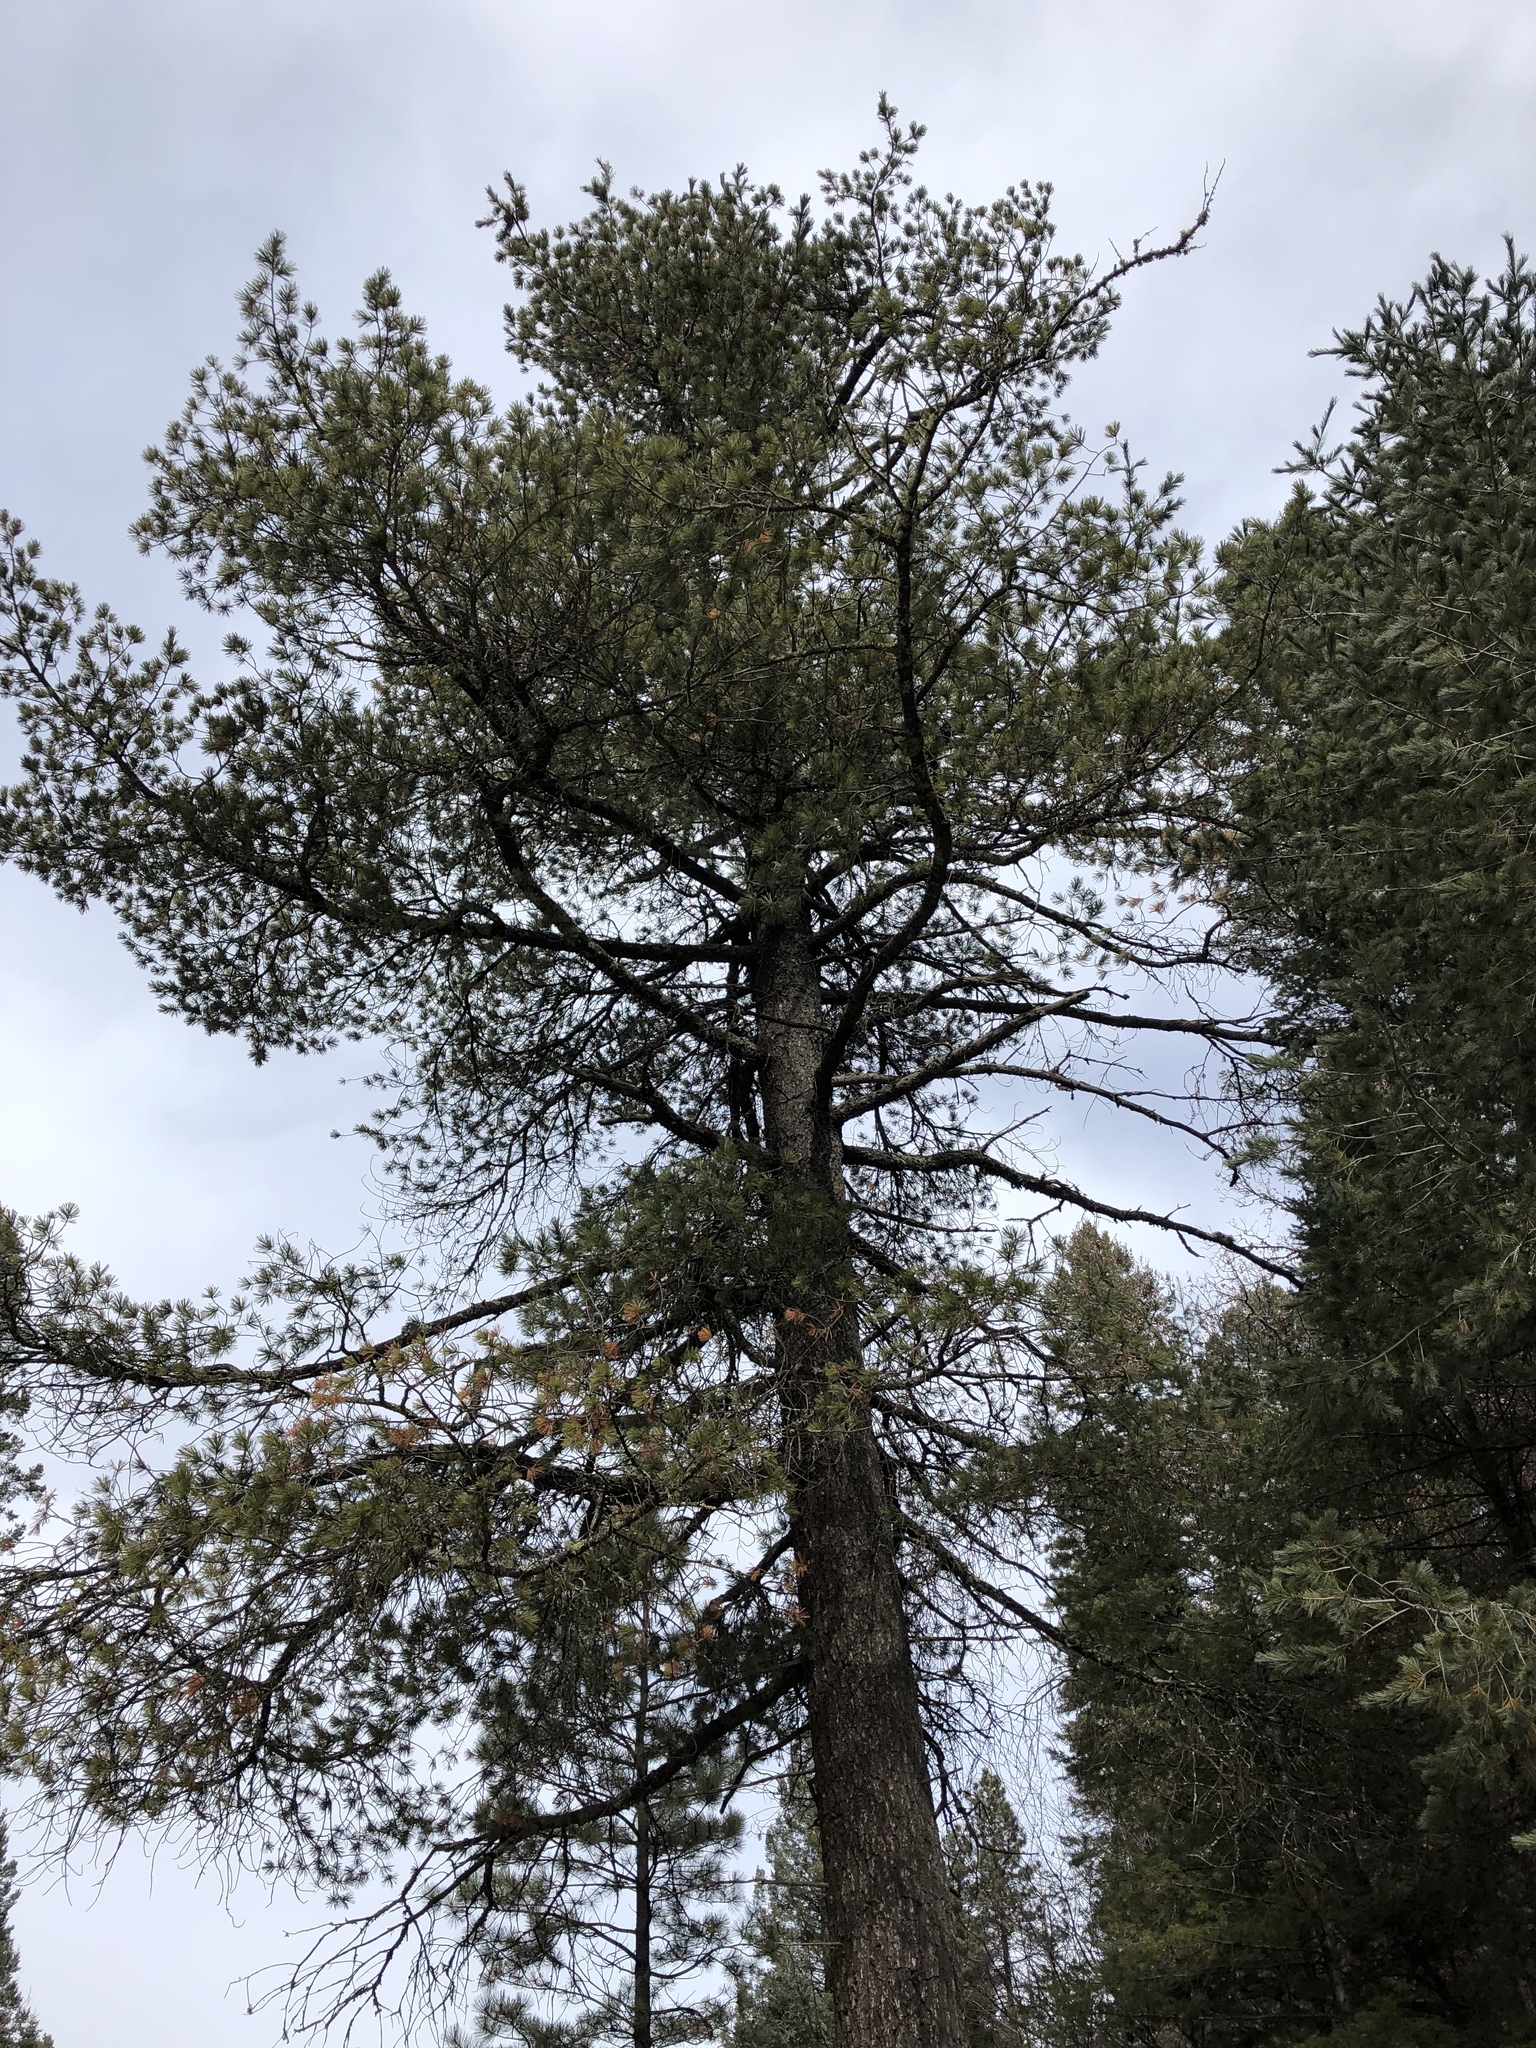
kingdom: Plantae
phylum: Tracheophyta
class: Pinopsida
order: Pinales
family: Pinaceae
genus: Pinus
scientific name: Pinus strobiformis
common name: Southwestern white pine
